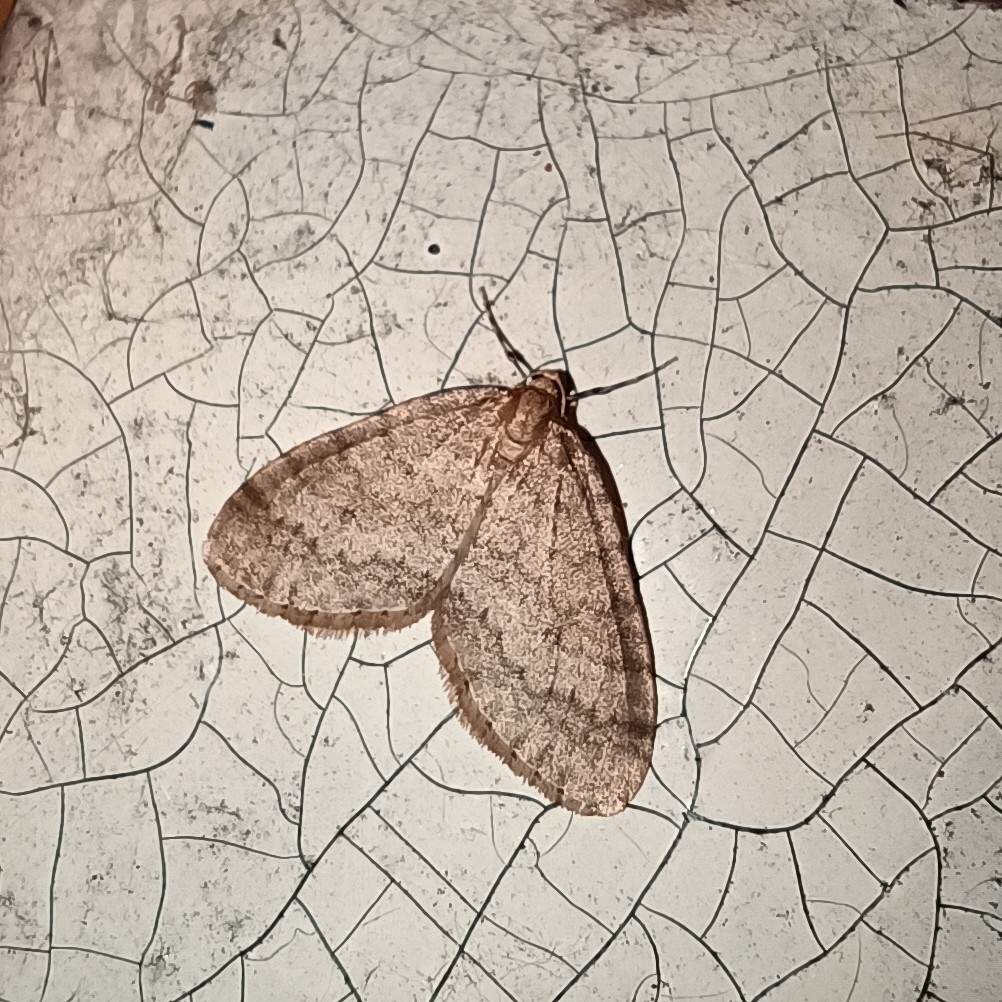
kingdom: Animalia
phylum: Arthropoda
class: Insecta
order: Lepidoptera
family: Geometridae
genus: Operophtera
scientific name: Operophtera brumata
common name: Winter moth
